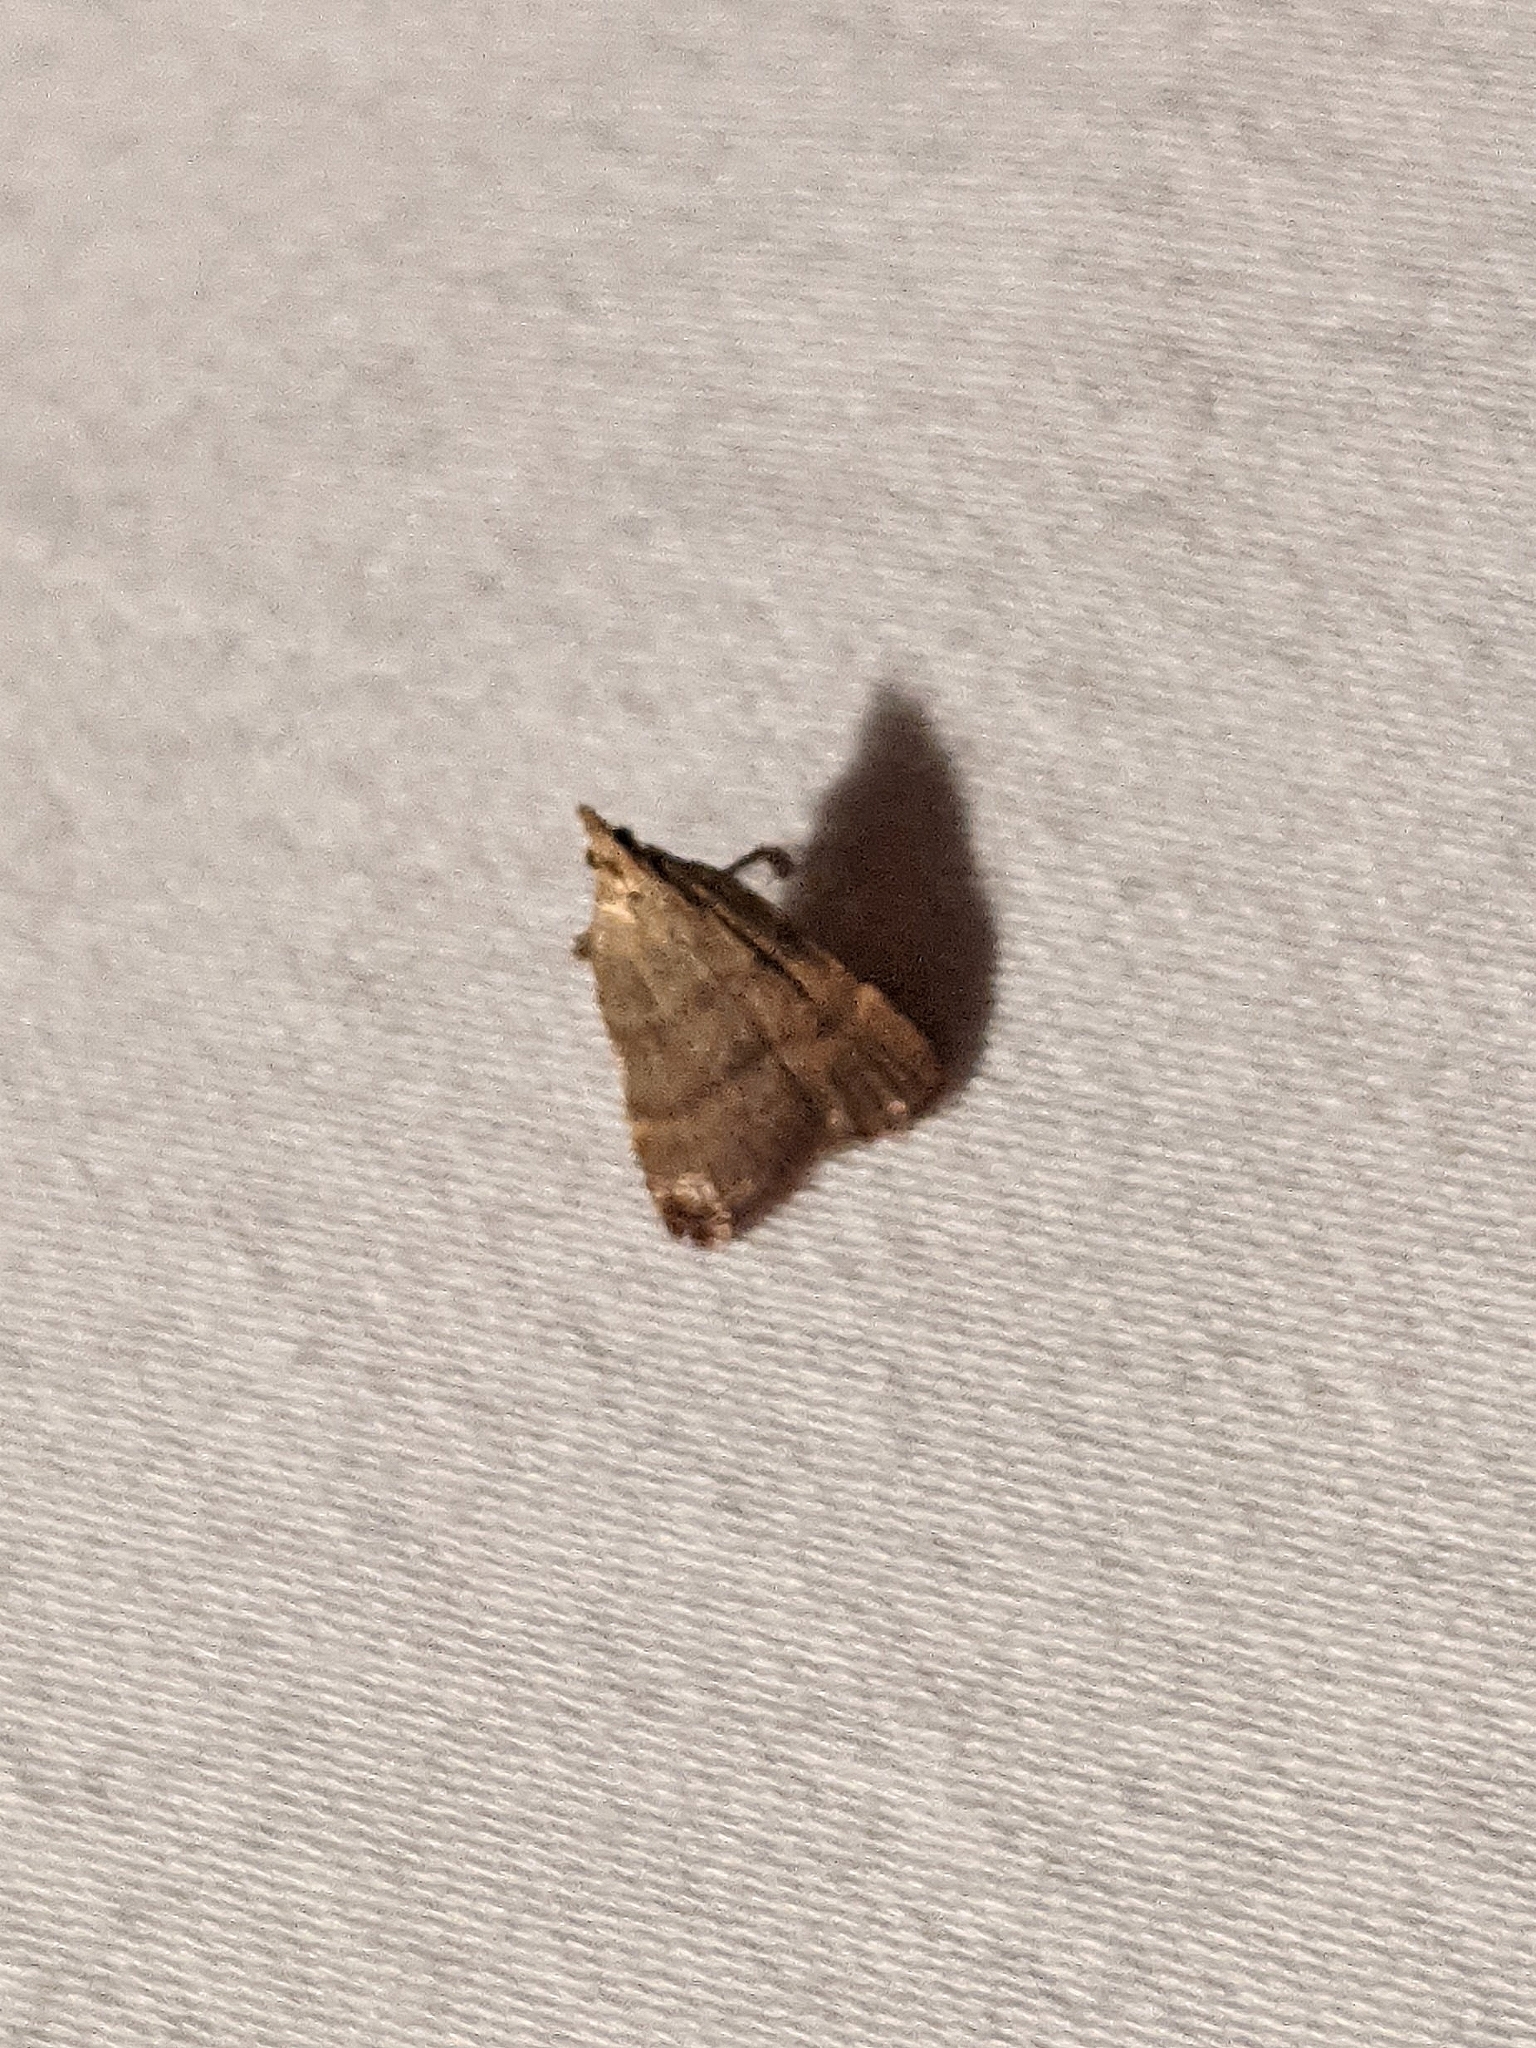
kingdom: Animalia
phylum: Arthropoda
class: Insecta
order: Lepidoptera
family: Pyralidae
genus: Condylolomia
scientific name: Condylolomia participialis
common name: Drab condylolomia moth
